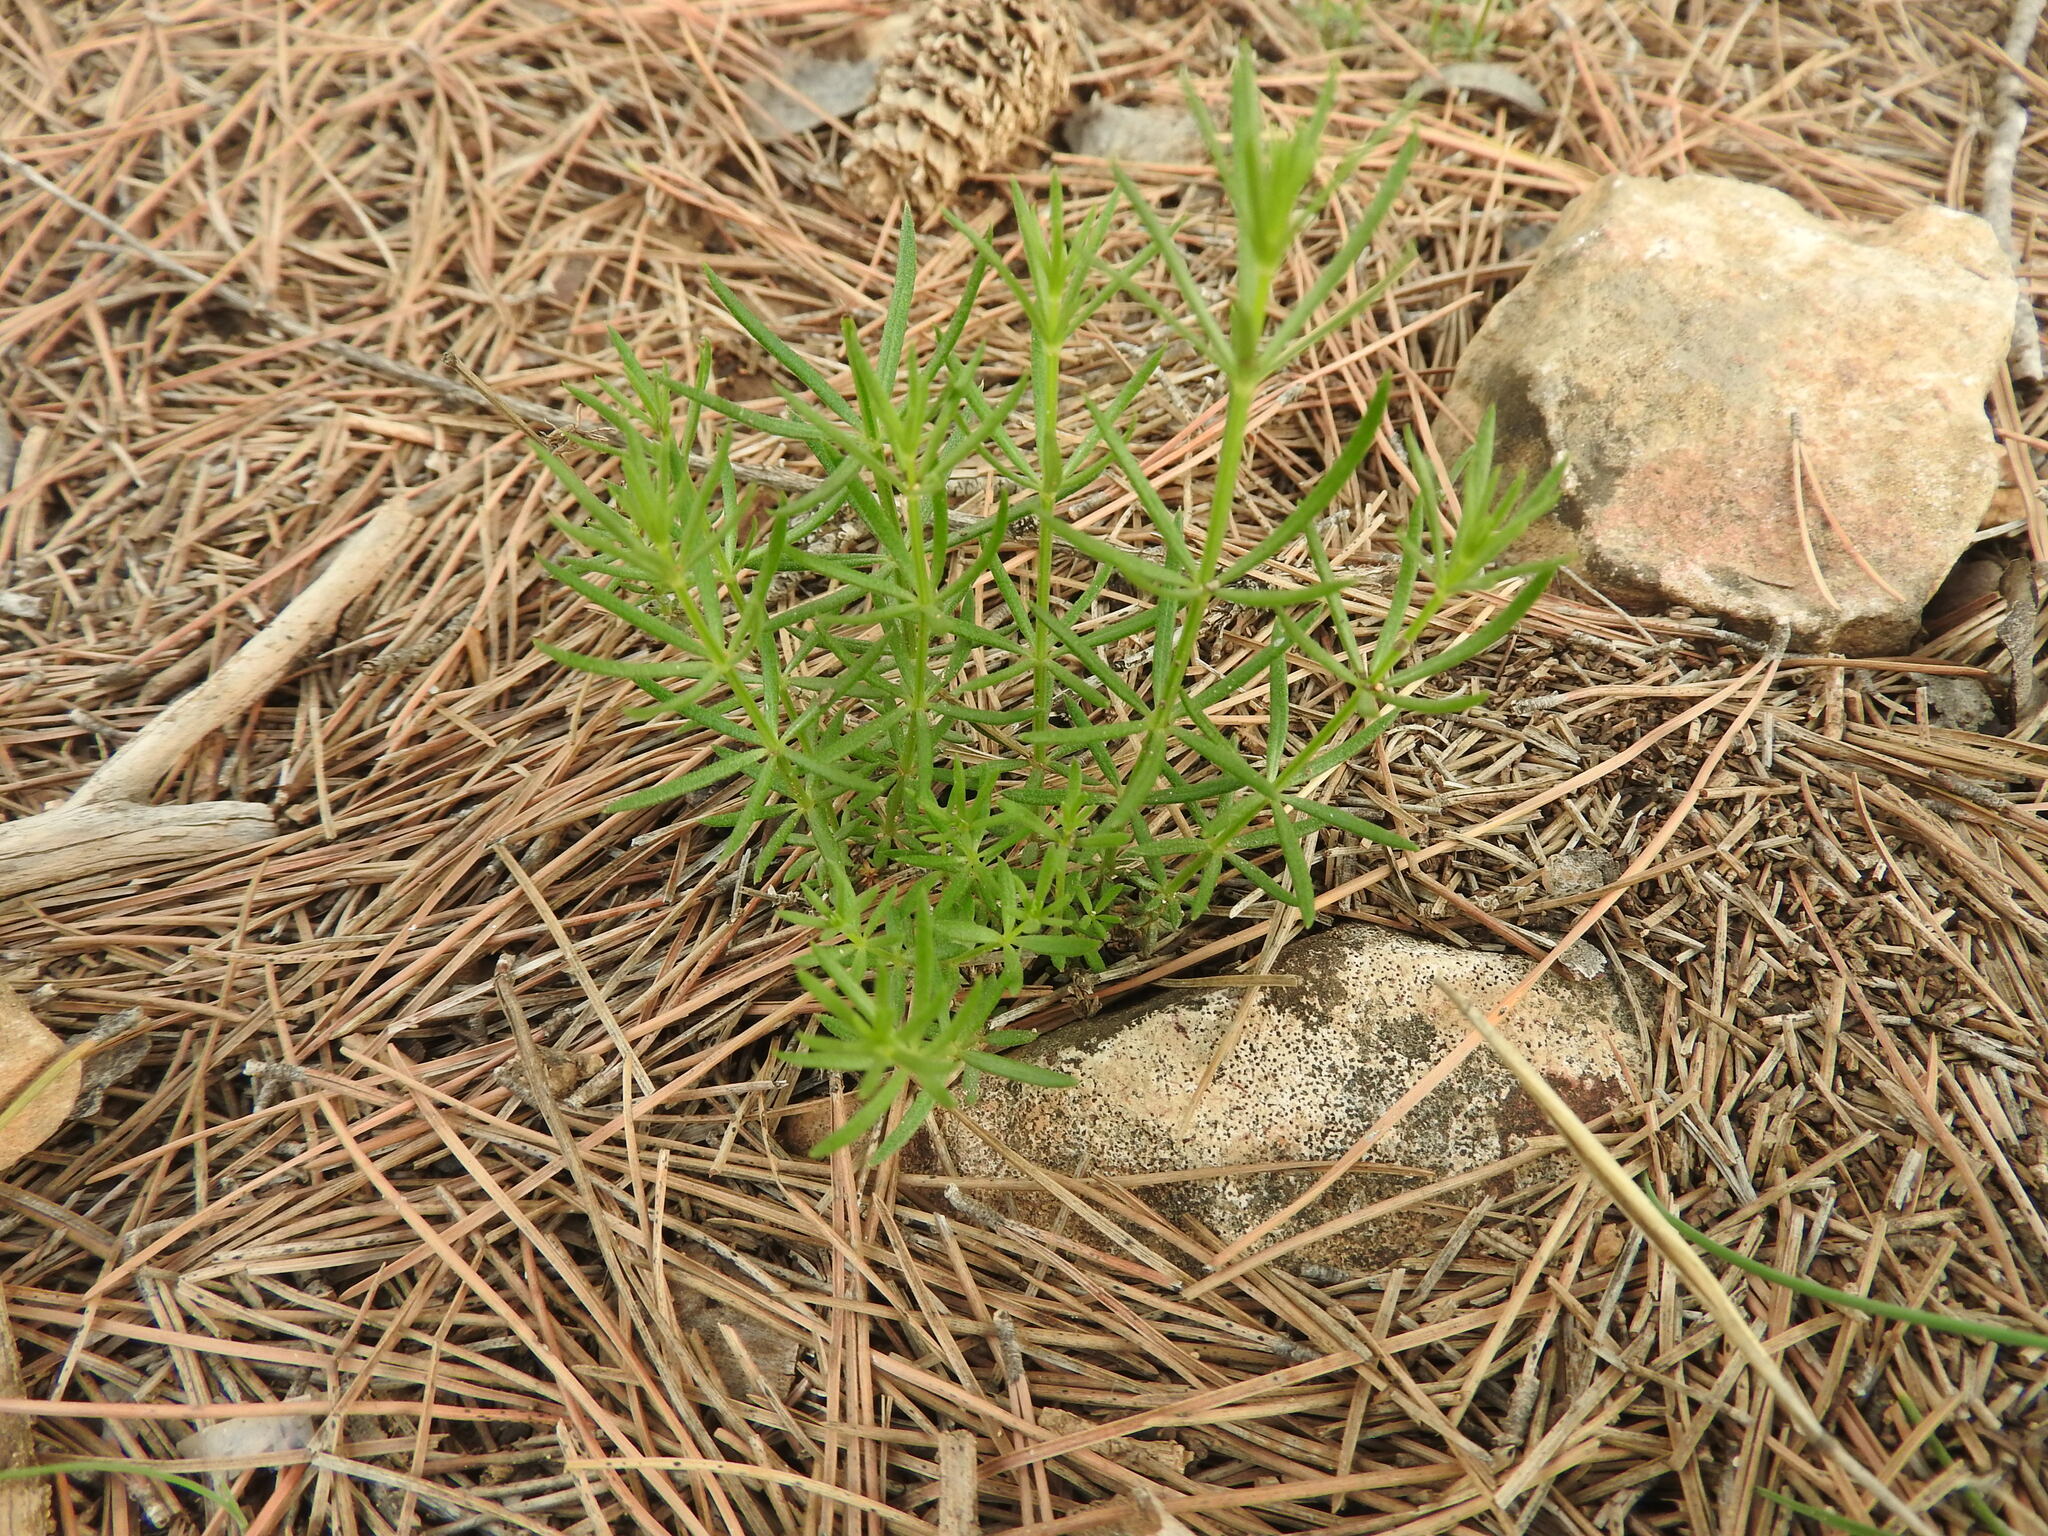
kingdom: Plantae
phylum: Tracheophyta
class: Magnoliopsida
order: Gentianales
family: Rubiaceae
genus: Hexaphylla
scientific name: Hexaphylla hirsuta
